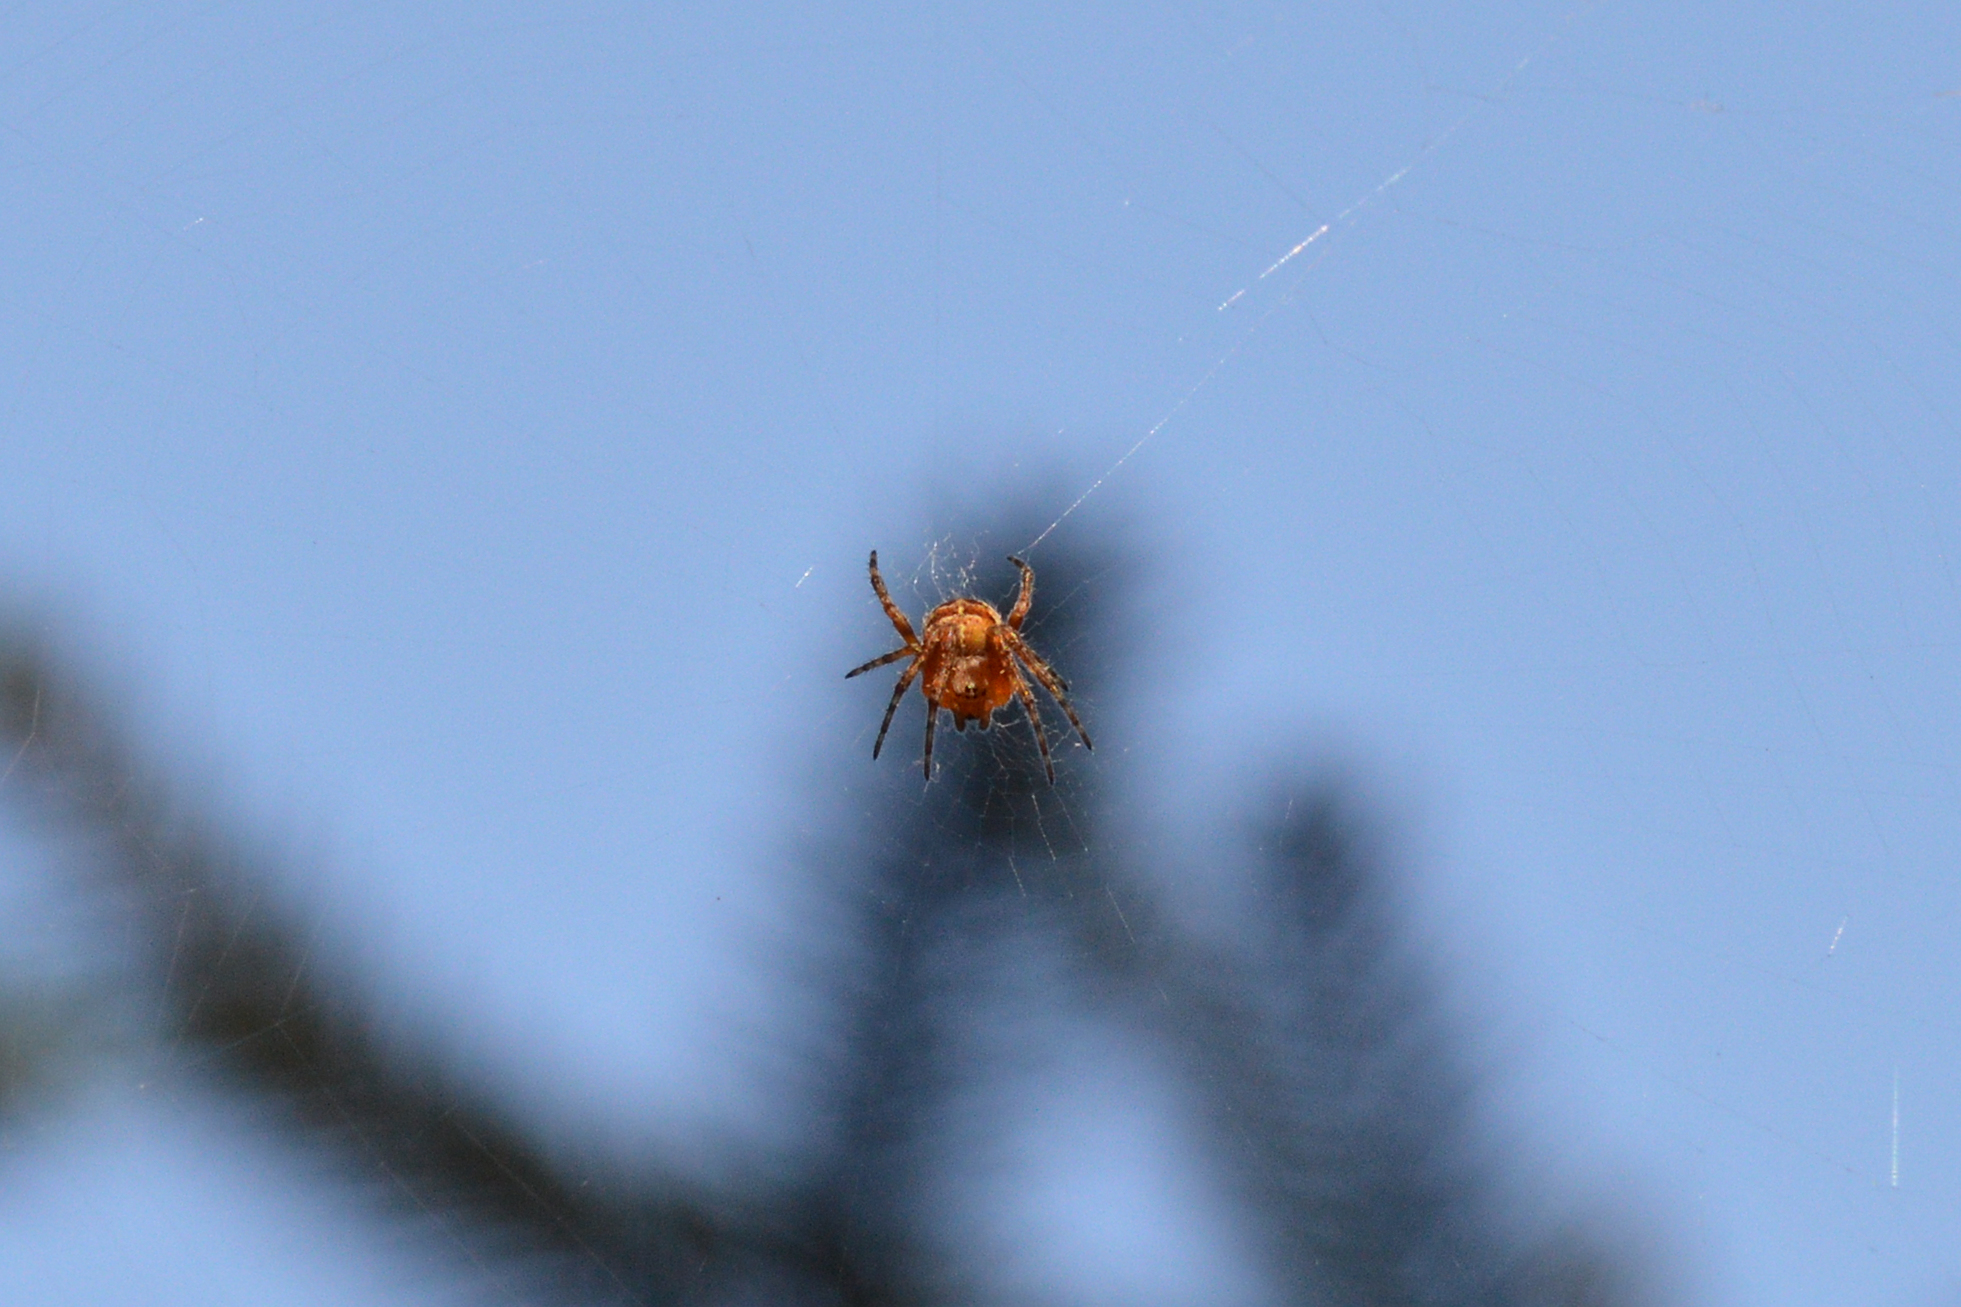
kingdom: Animalia
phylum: Arthropoda
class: Arachnida
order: Araneae
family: Araneidae
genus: Araneus
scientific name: Araneus diadematus
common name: Cross orbweaver
